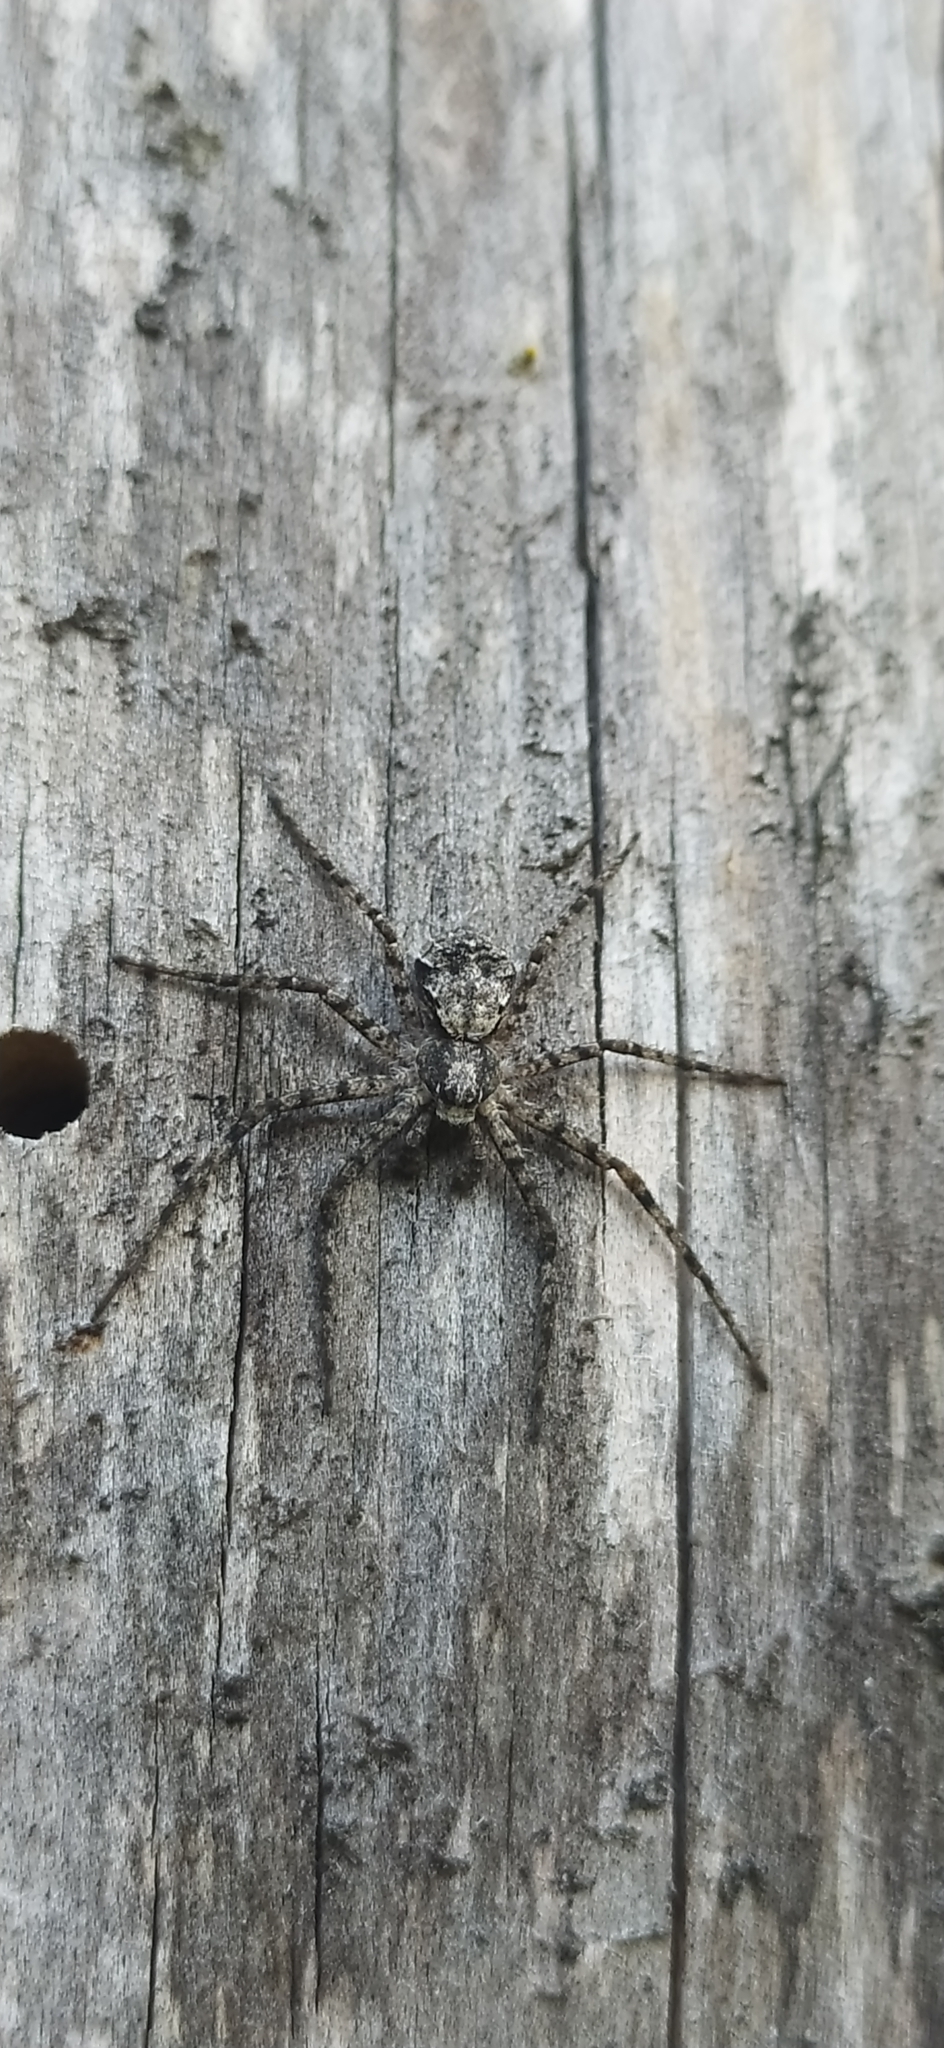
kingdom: Animalia
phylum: Arthropoda
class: Arachnida
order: Araneae
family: Philodromidae
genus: Philodromus
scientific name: Philodromus margaritatus
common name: Lichen running-spider
